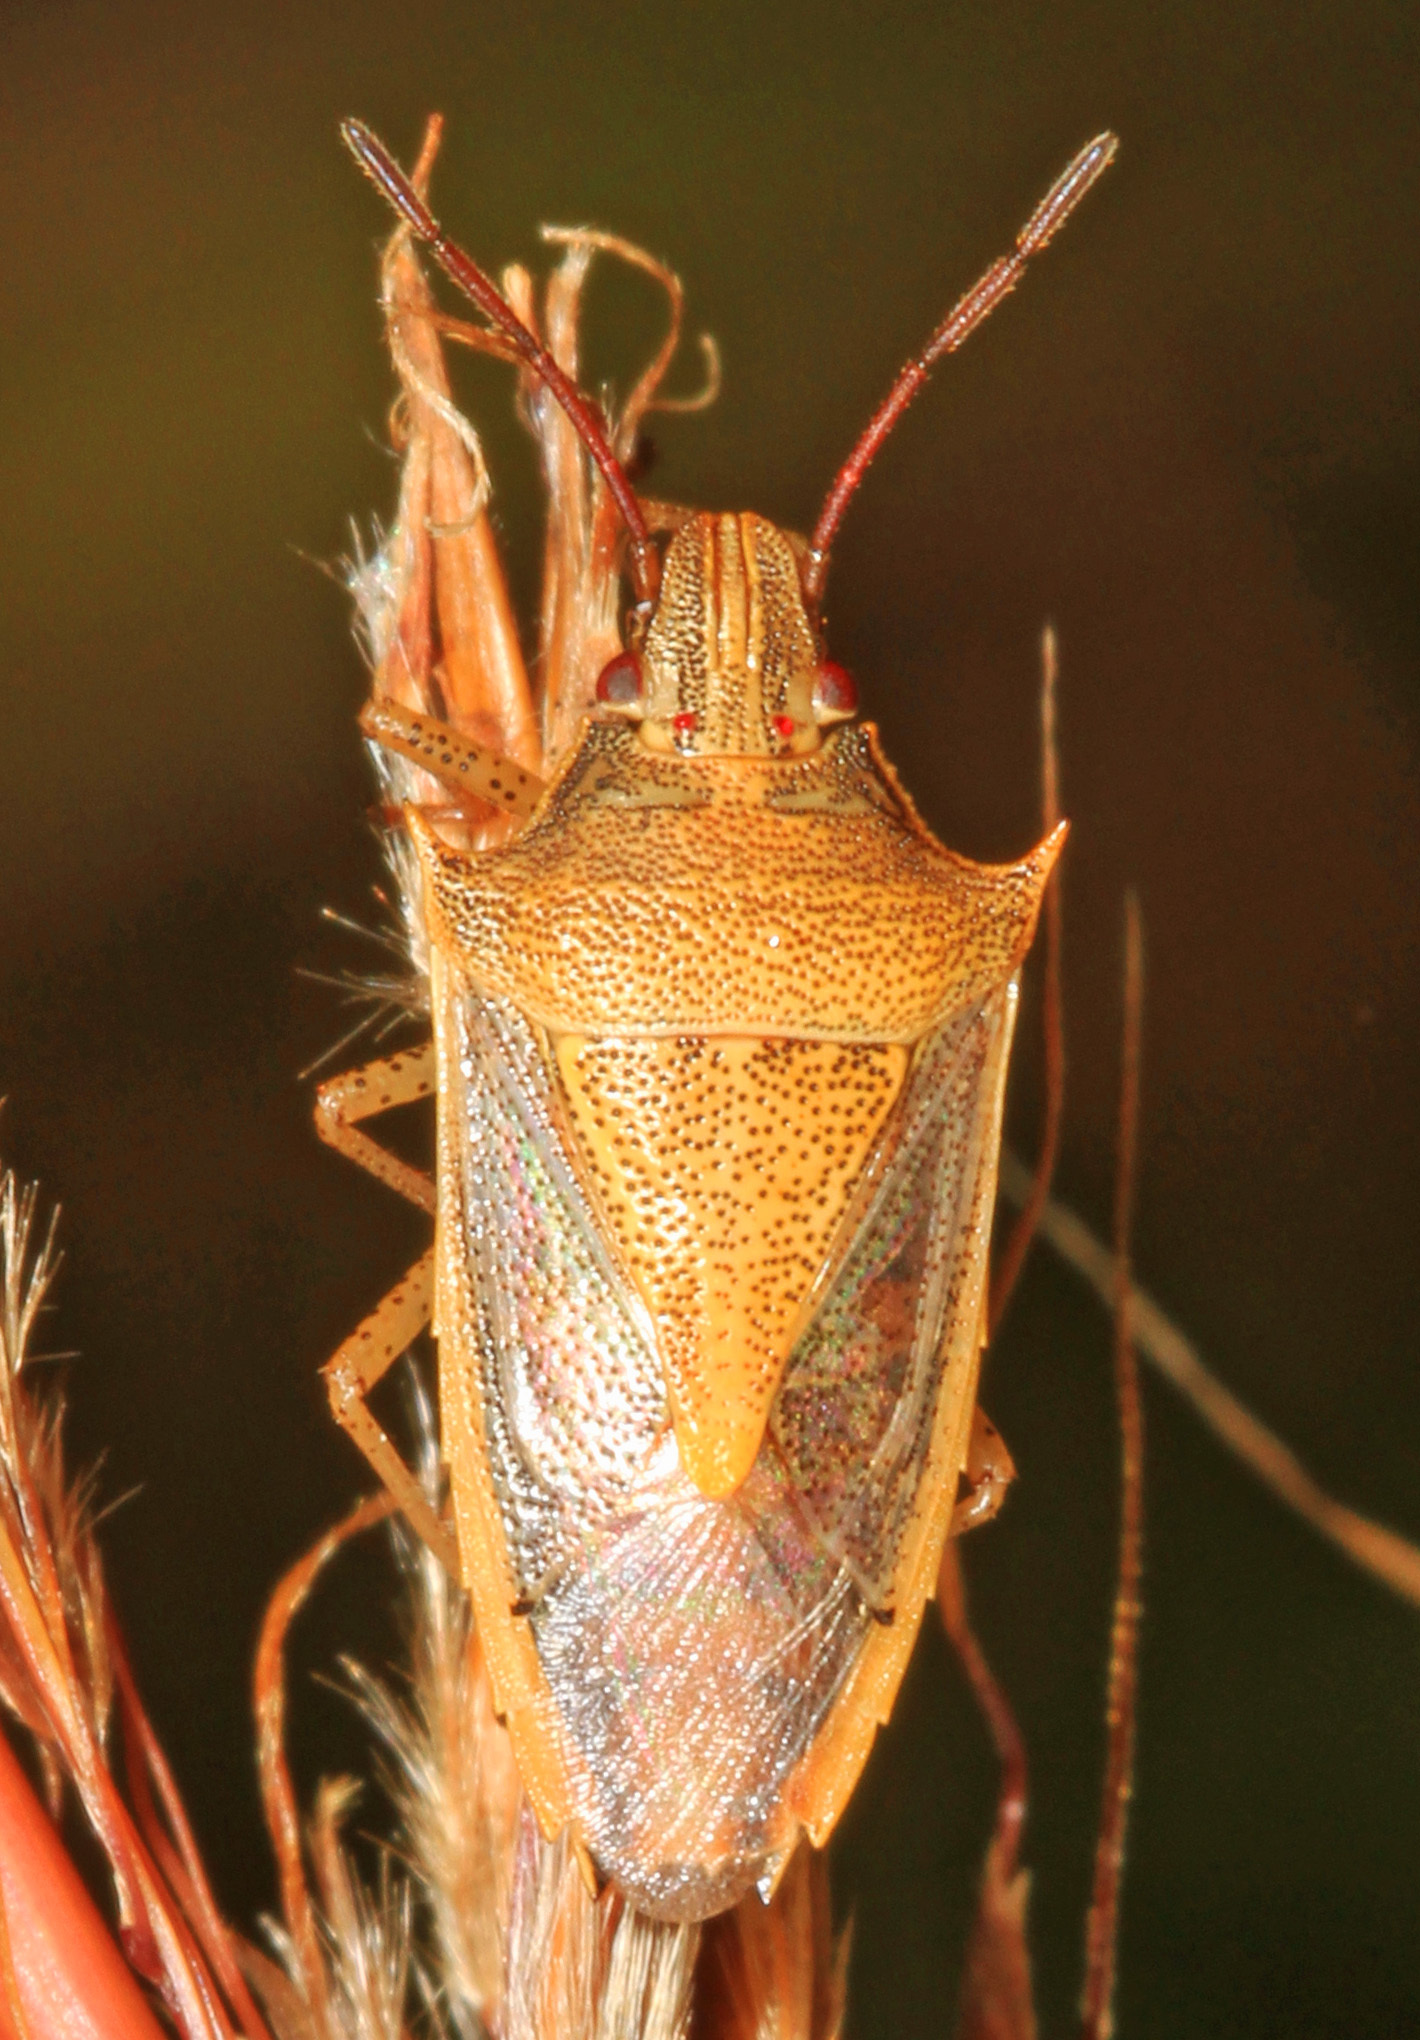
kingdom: Animalia
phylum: Arthropoda
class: Insecta
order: Hemiptera
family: Pentatomidae
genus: Oebalus
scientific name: Oebalus pugnax
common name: Rice stink bug
